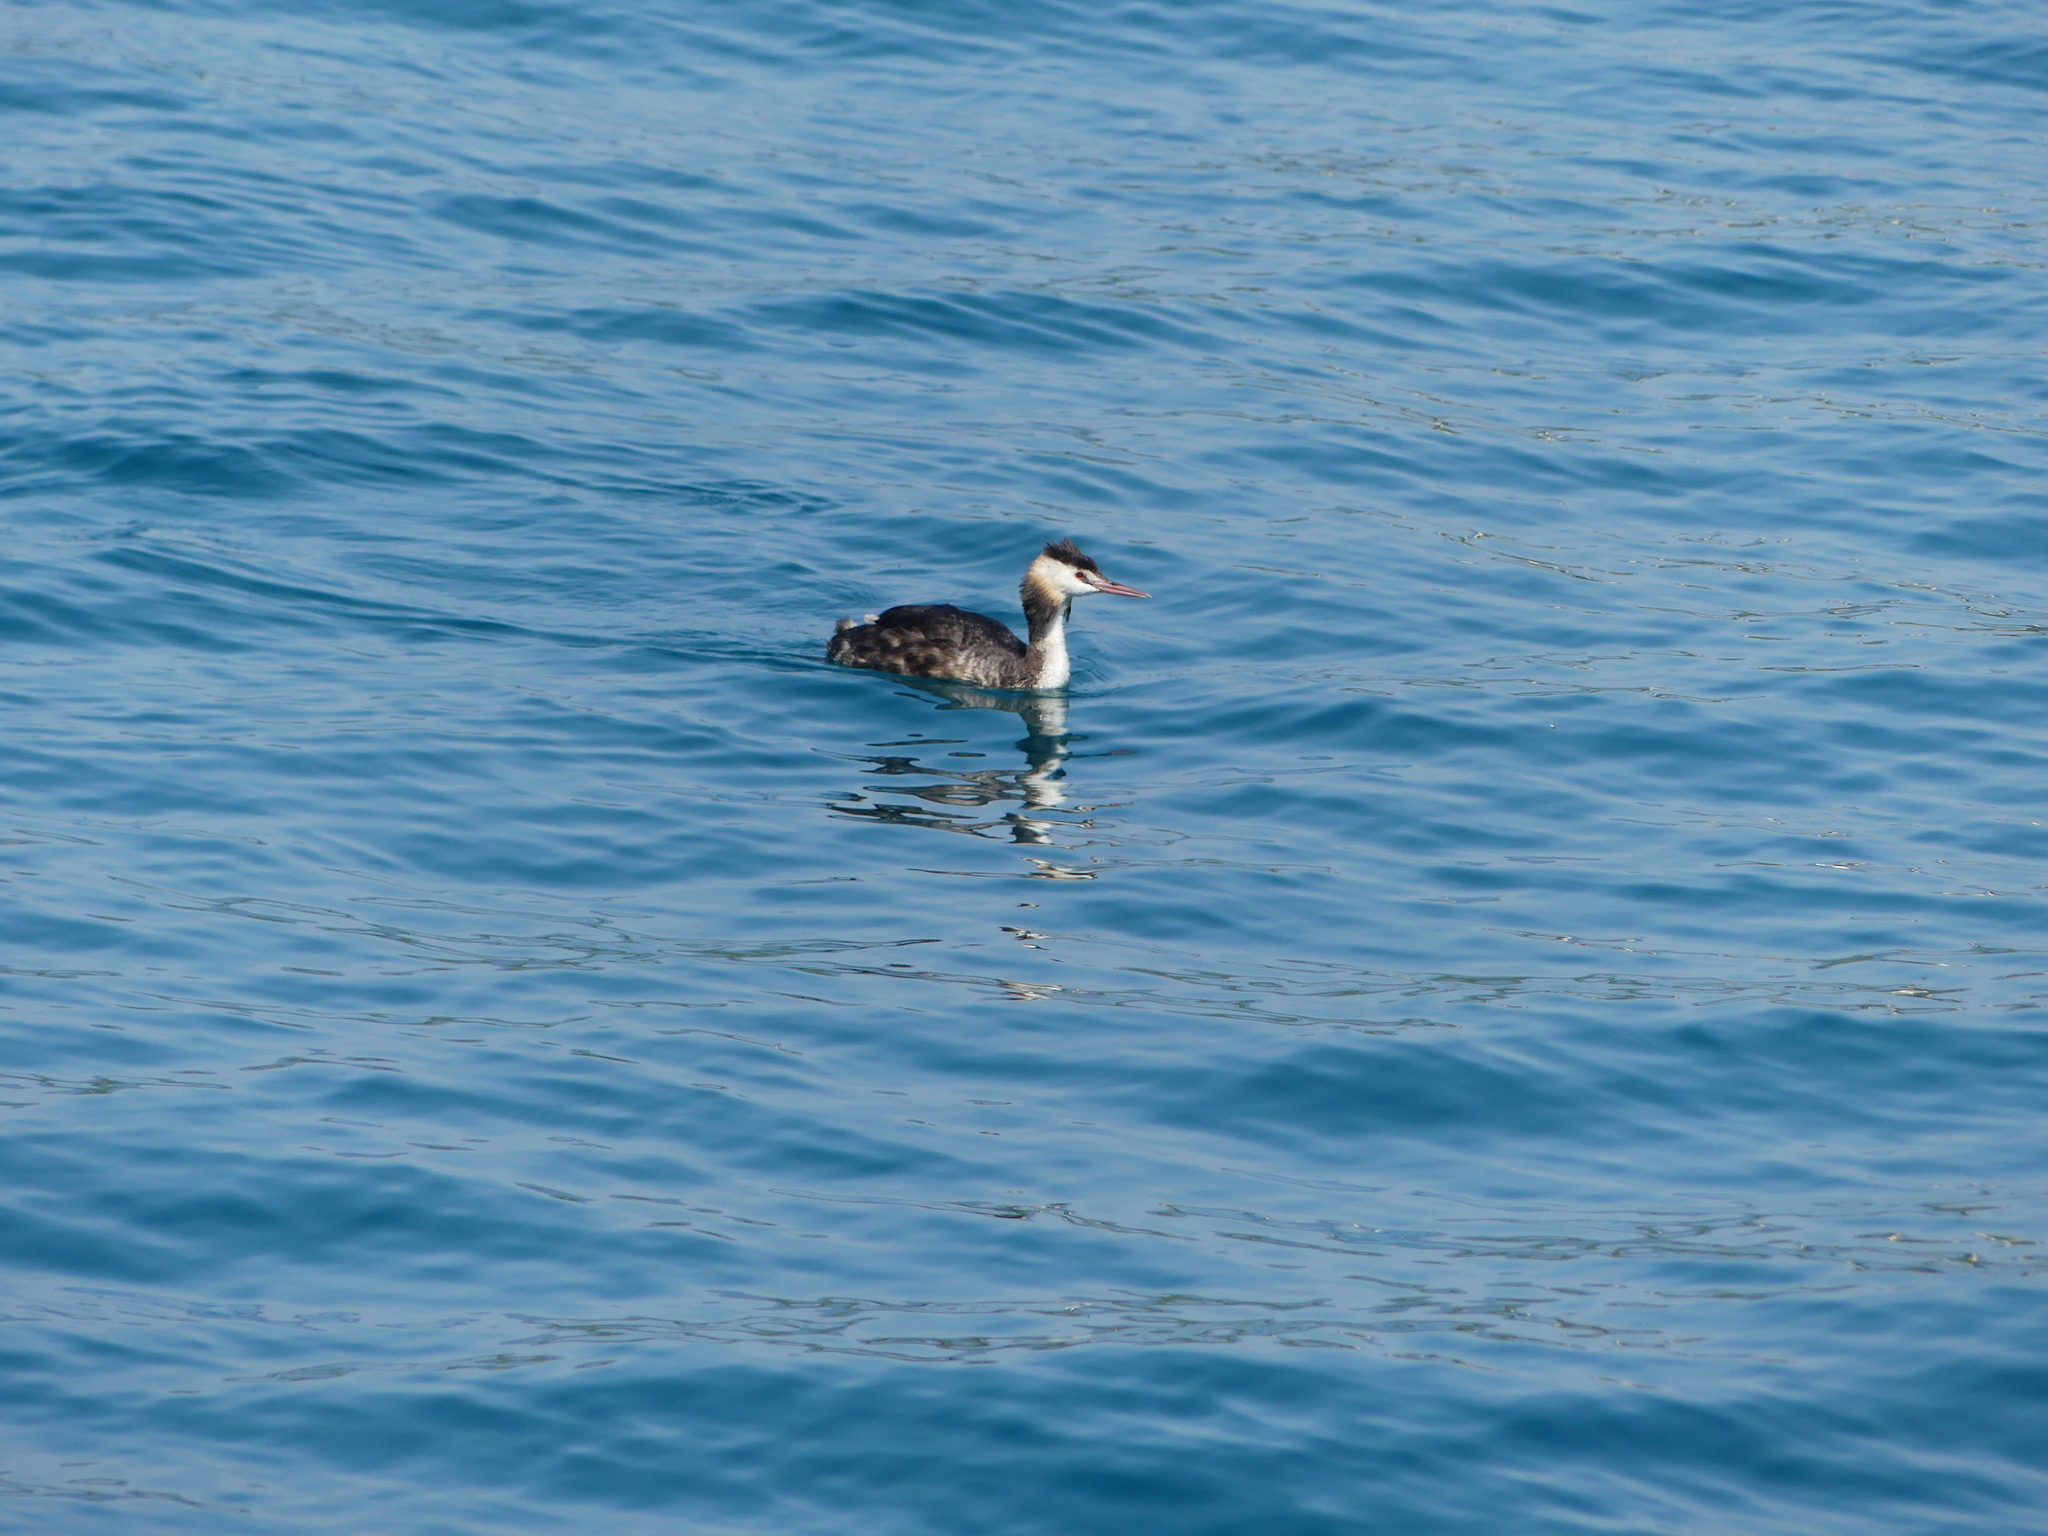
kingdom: Animalia
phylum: Chordata
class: Aves
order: Podicipediformes
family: Podicipedidae
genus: Podiceps
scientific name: Podiceps cristatus
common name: Great crested grebe
